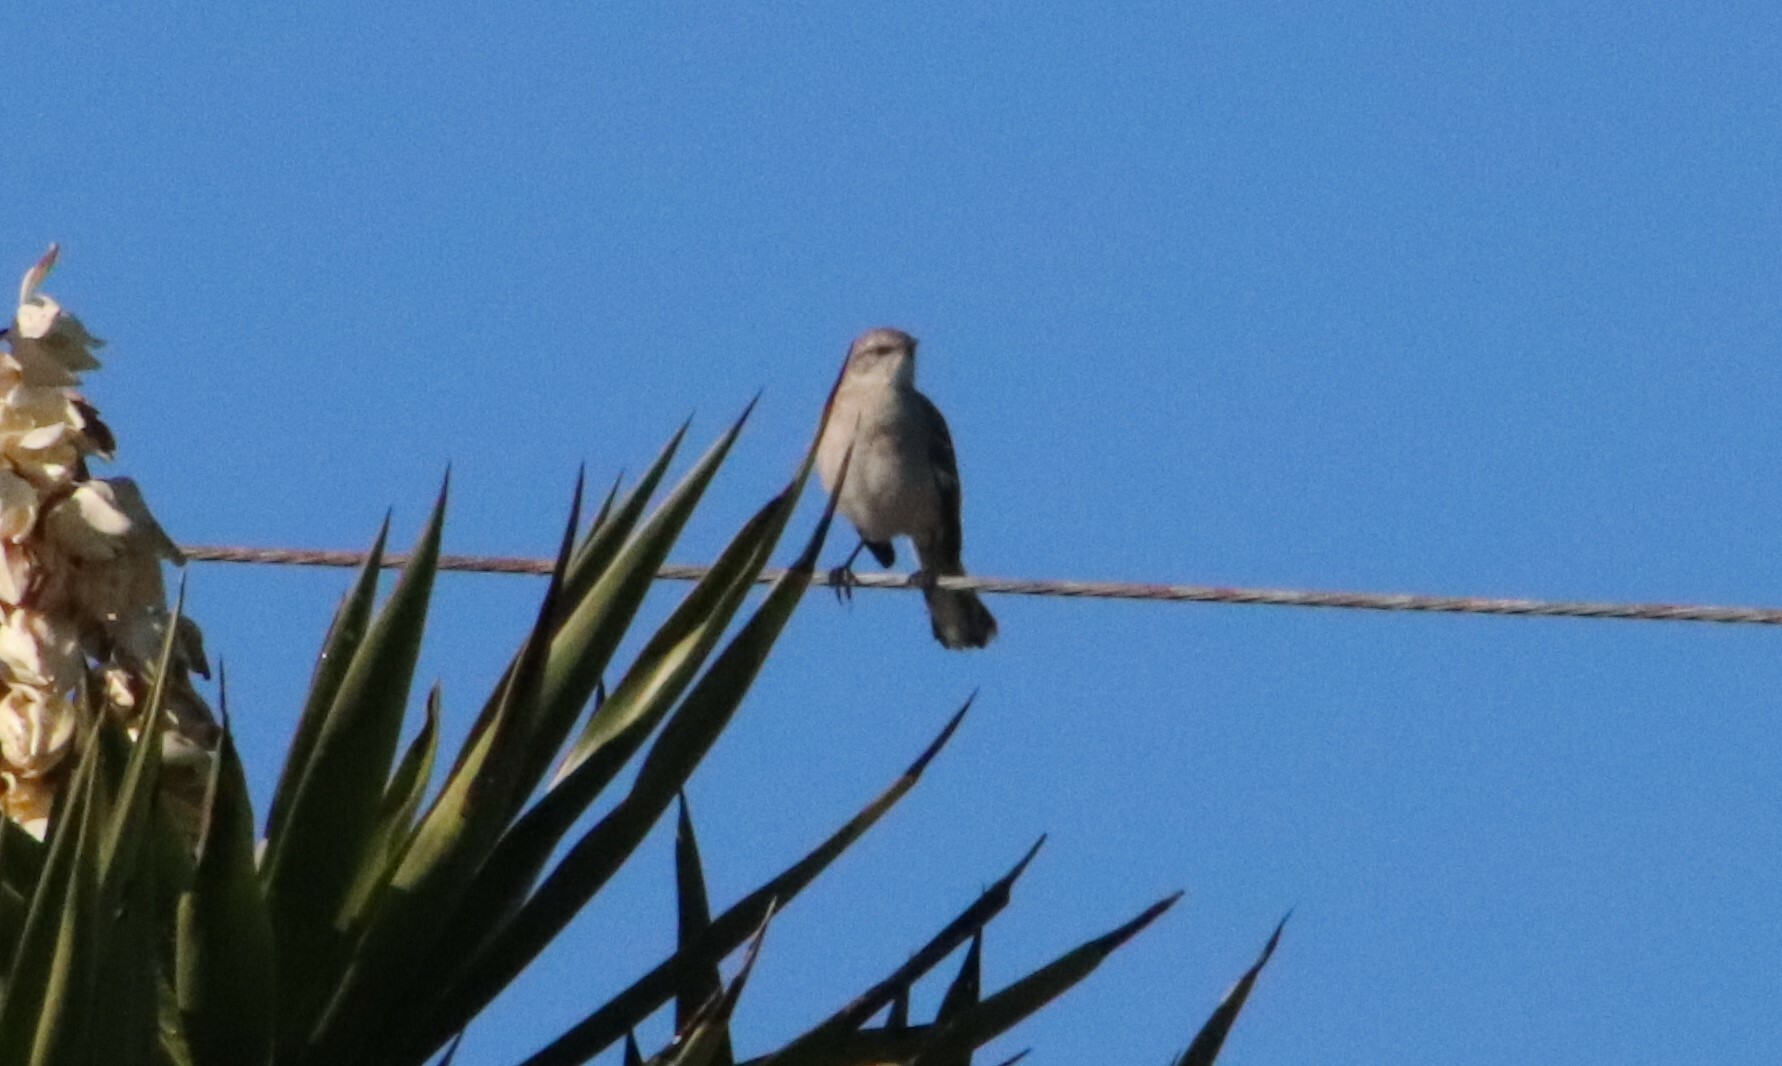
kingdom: Animalia
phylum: Chordata
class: Aves
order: Passeriformes
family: Mimidae
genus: Mimus
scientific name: Mimus polyglottos
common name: Northern mockingbird
